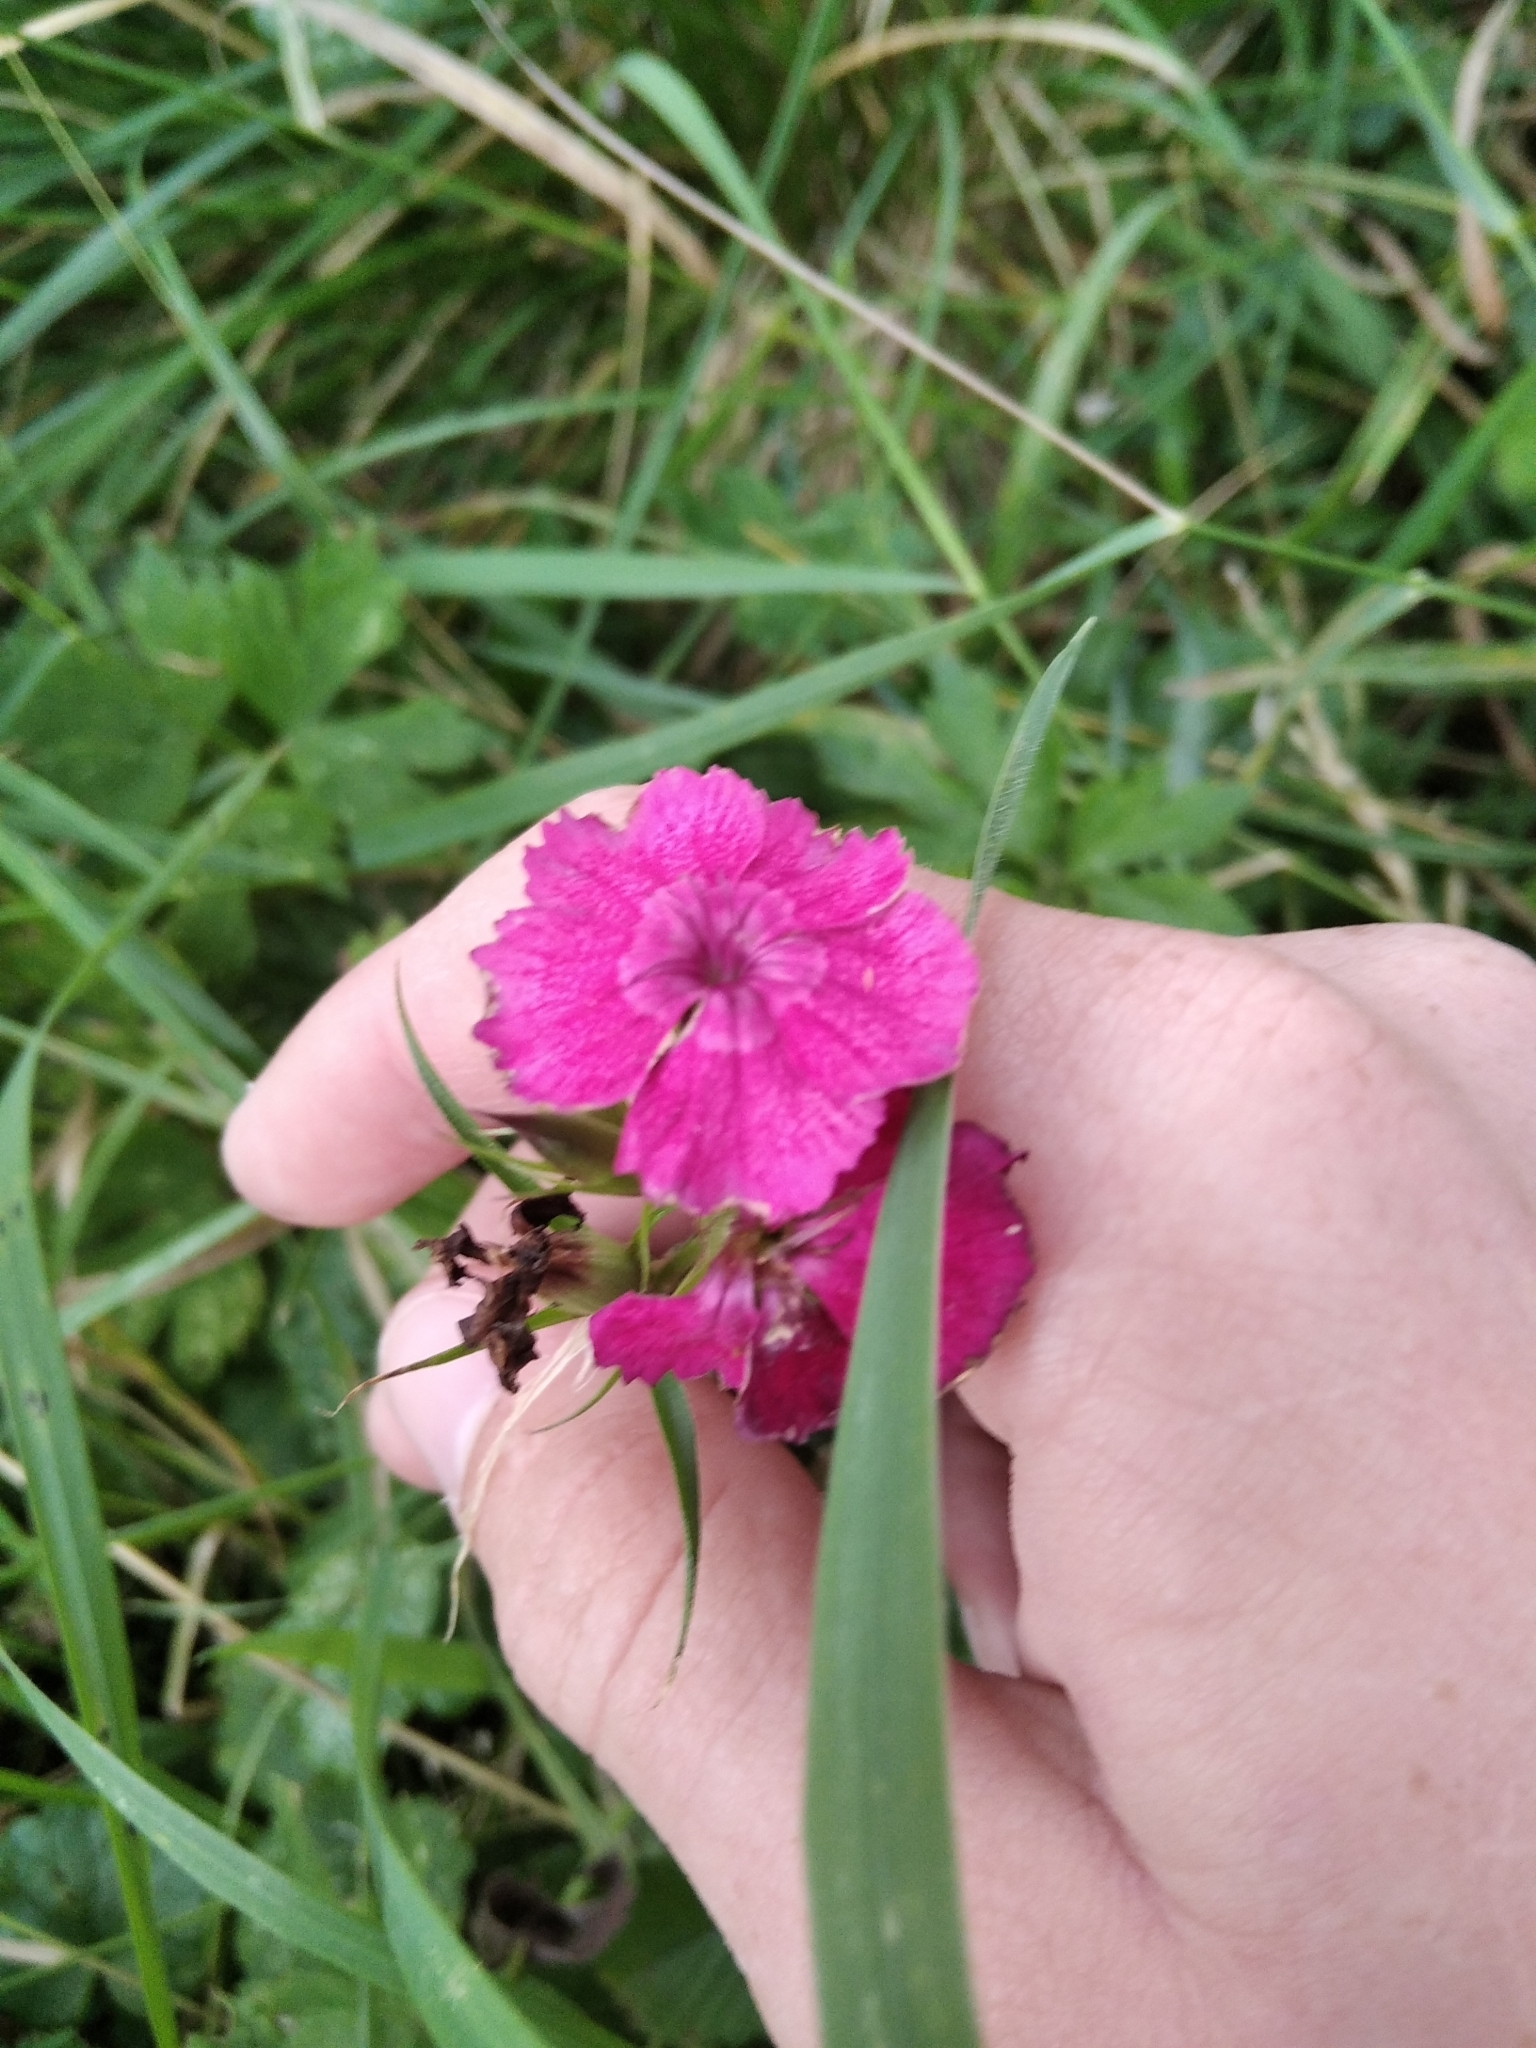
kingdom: Plantae
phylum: Tracheophyta
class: Magnoliopsida
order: Caryophyllales
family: Caryophyllaceae
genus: Dianthus
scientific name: Dianthus barbatus
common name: Sweet-william
